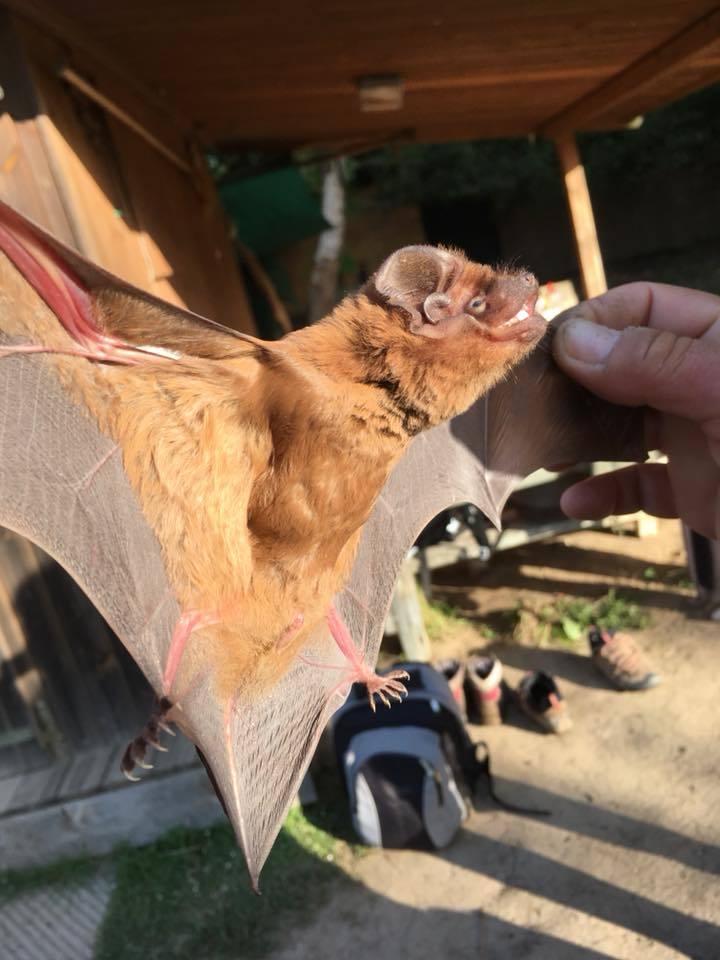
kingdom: Animalia
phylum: Chordata
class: Mammalia
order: Chiroptera
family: Vespertilionidae
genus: Nyctalus
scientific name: Nyctalus lasiopterus
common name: Giant noctule
